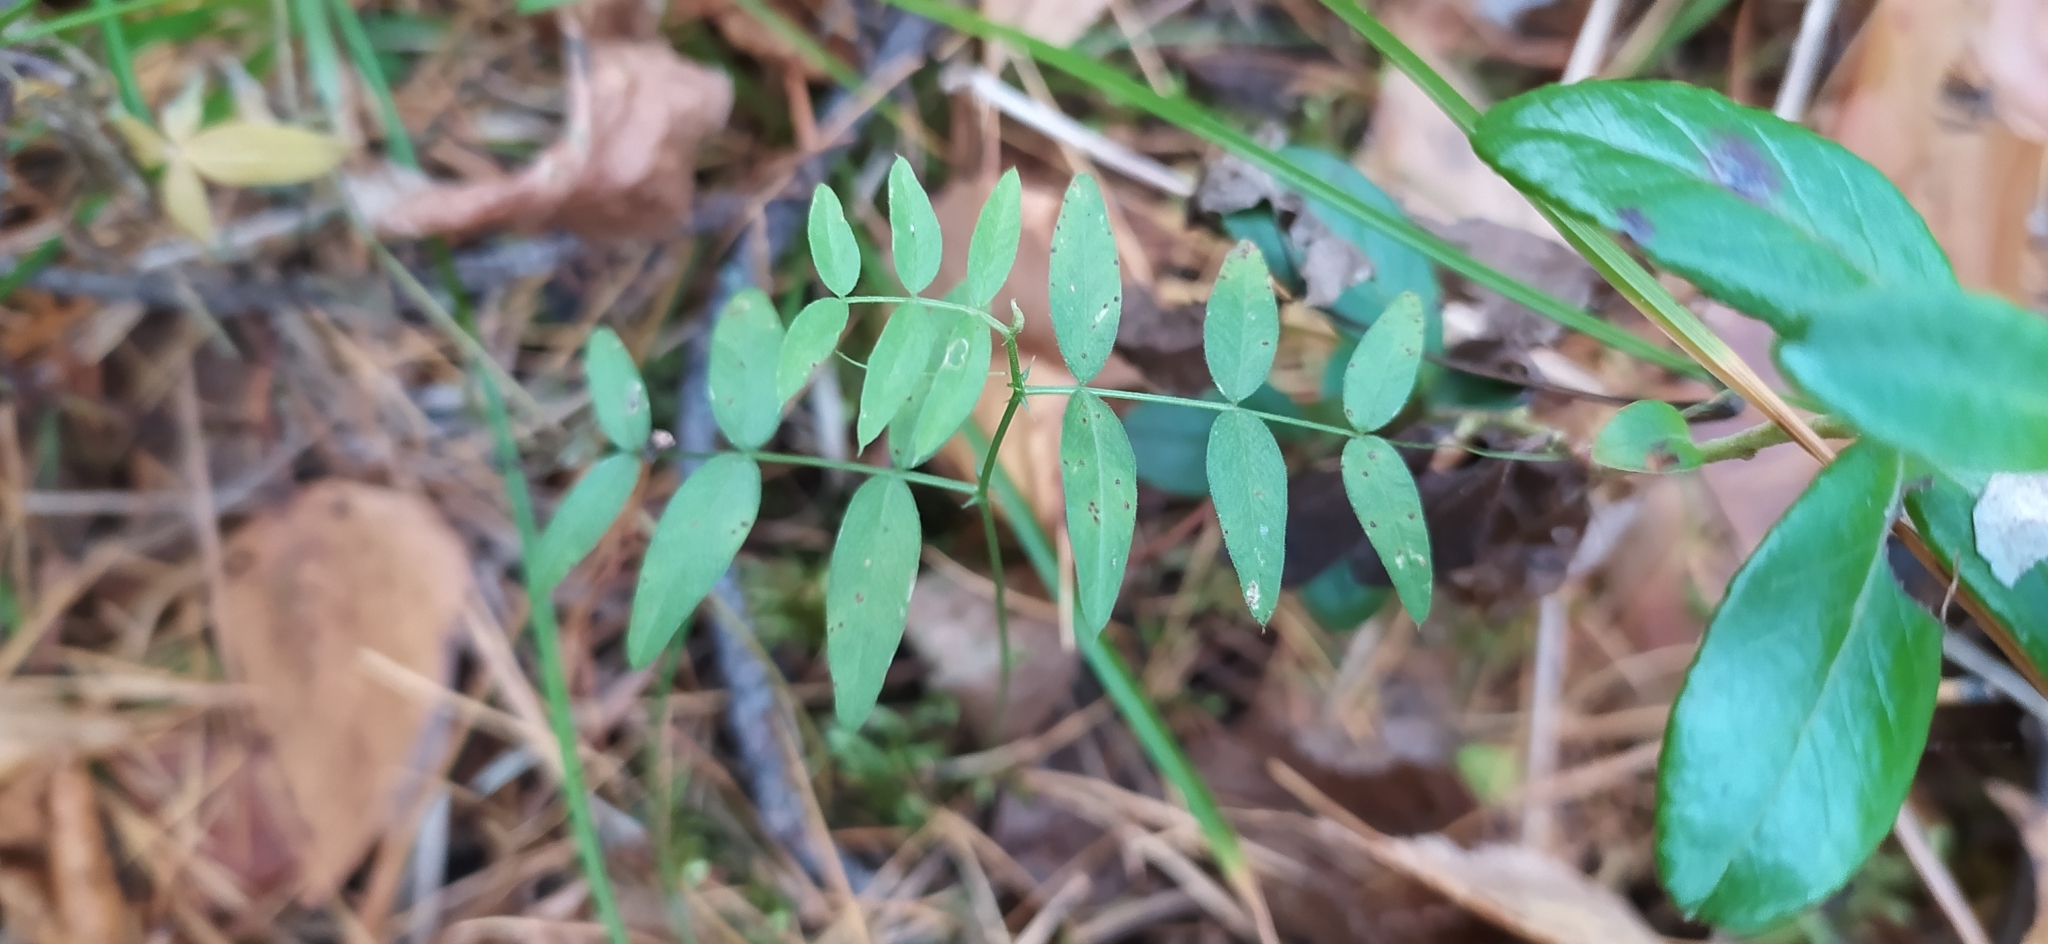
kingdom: Plantae
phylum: Tracheophyta
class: Magnoliopsida
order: Fabales
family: Fabaceae
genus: Vicia
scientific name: Vicia cracca
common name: Bird vetch
